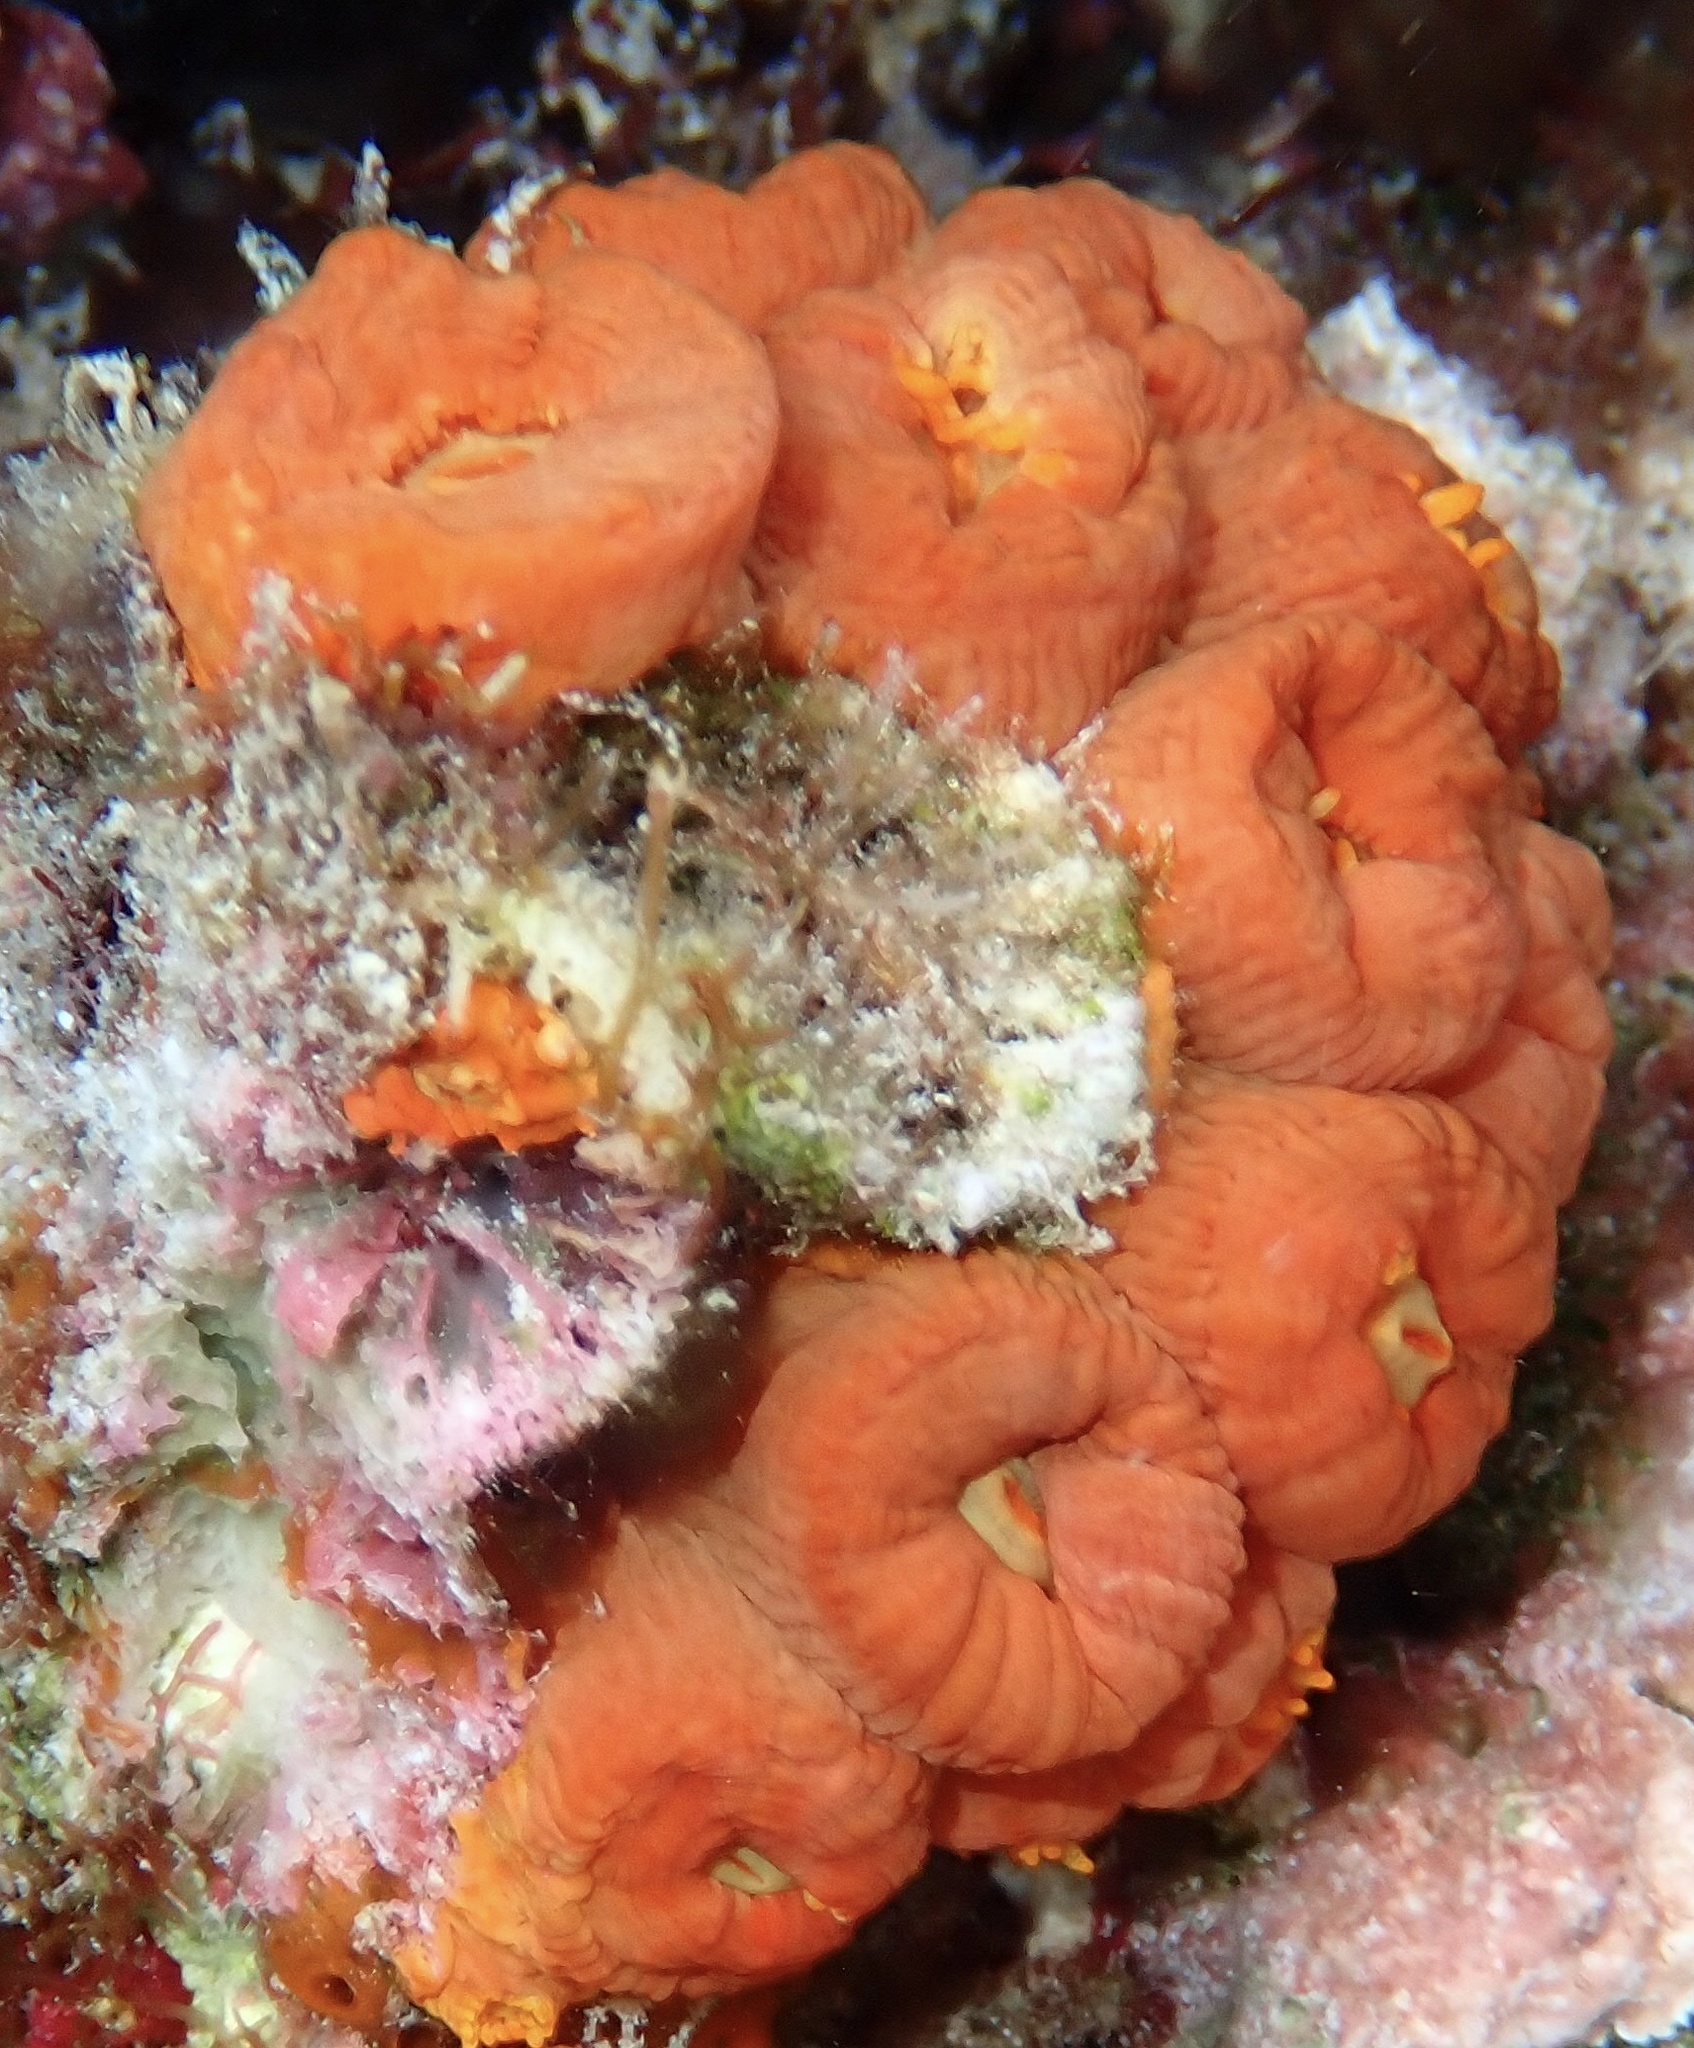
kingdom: Animalia
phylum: Cnidaria
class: Anthozoa
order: Scleractinia
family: Dendrophylliidae
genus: Tubastraea
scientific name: Tubastraea coccinea
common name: Orange cup coral
